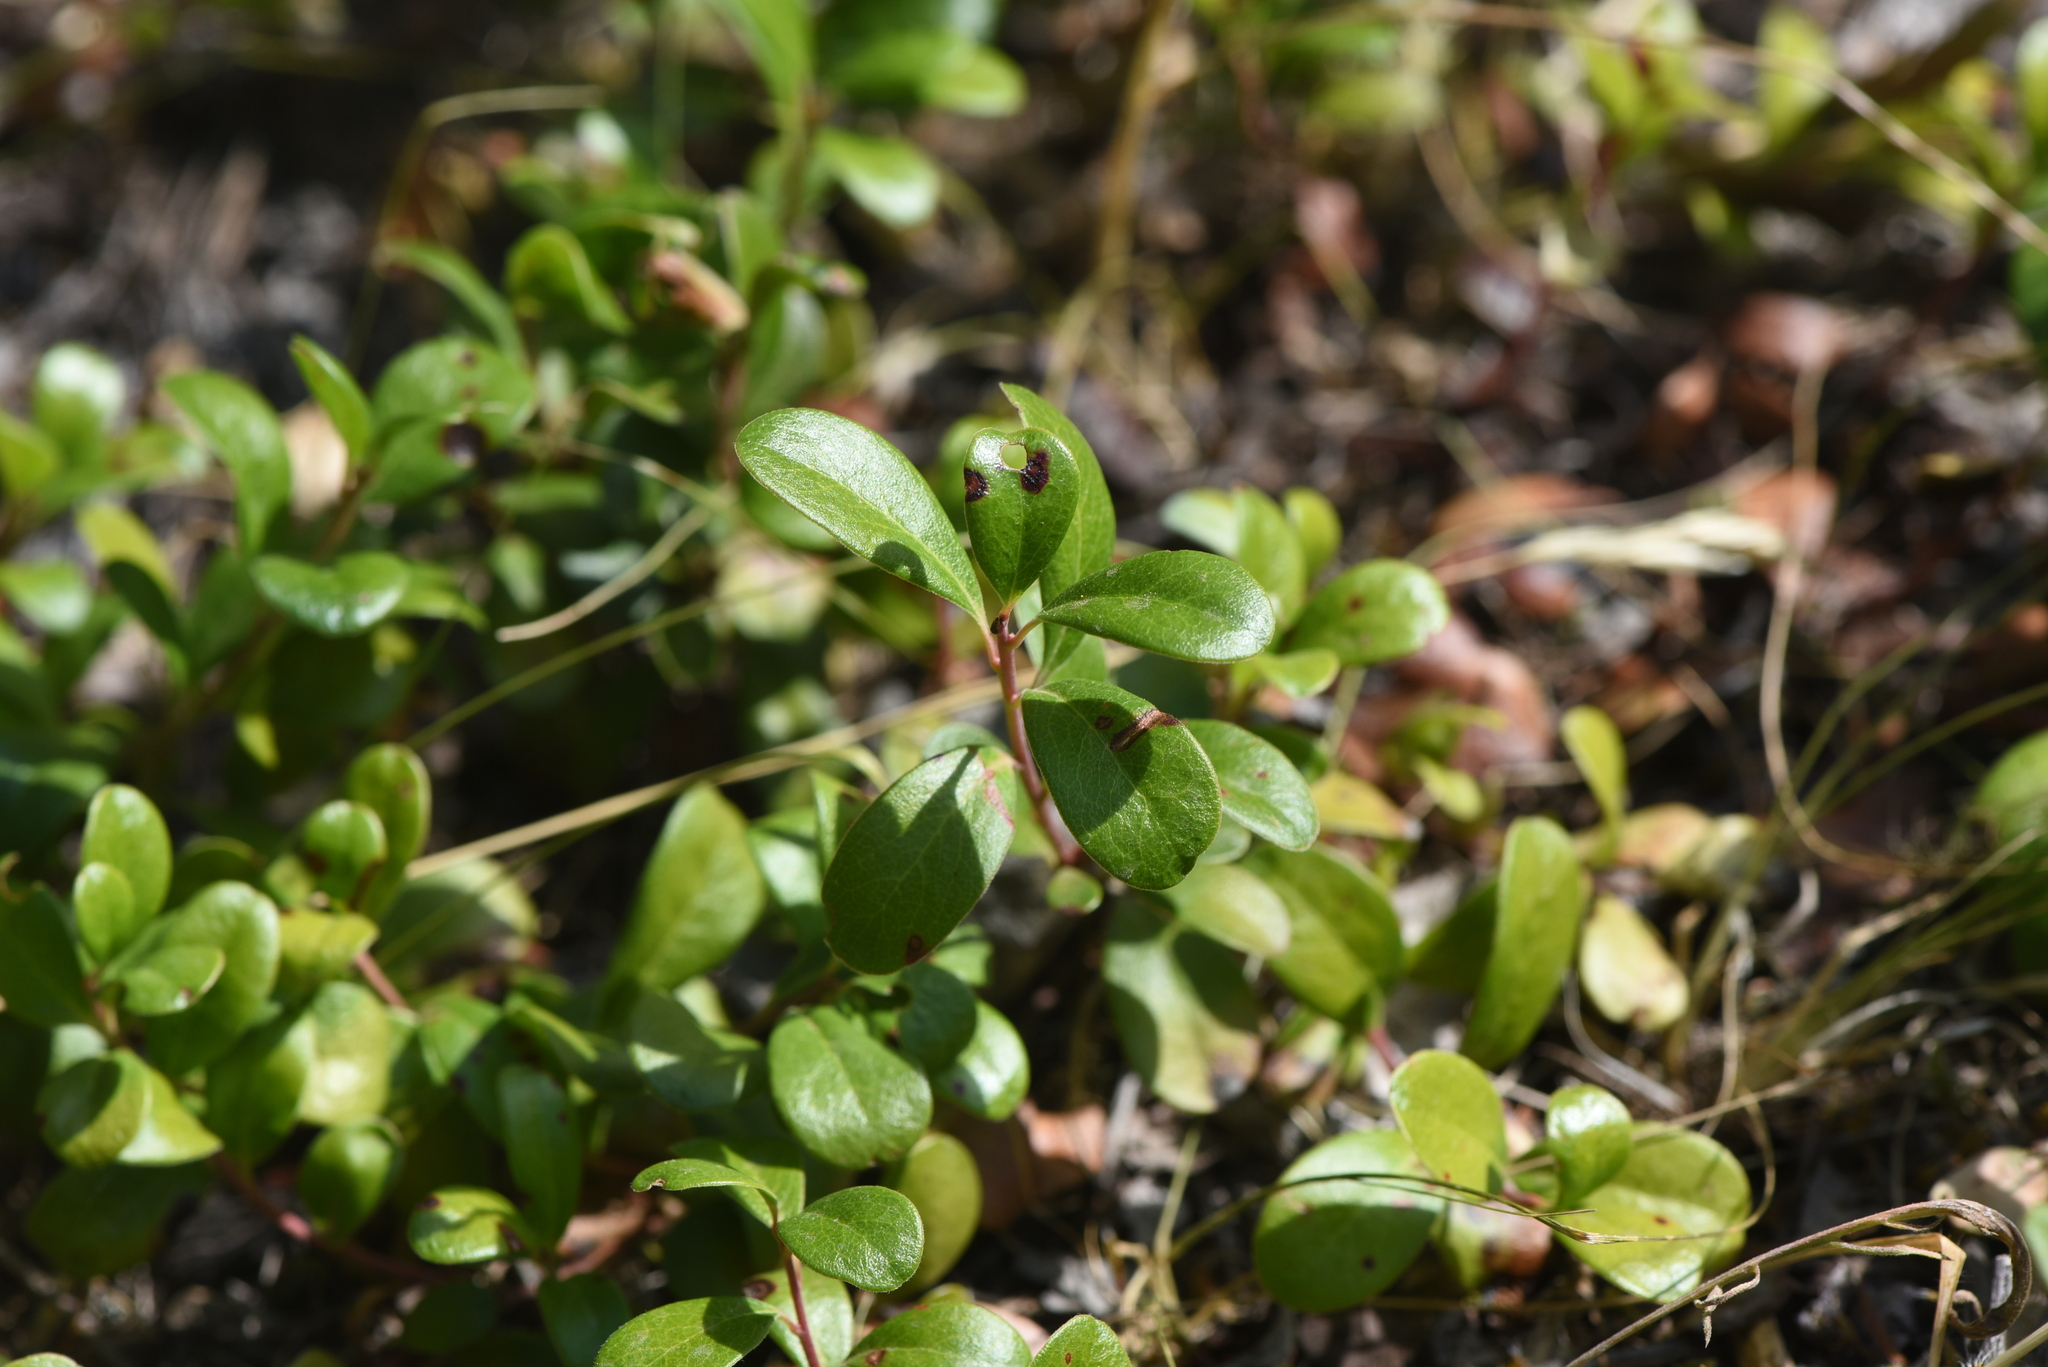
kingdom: Plantae
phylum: Tracheophyta
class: Magnoliopsida
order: Ericales
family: Ericaceae
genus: Arctostaphylos
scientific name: Arctostaphylos uva-ursi
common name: Bearberry
